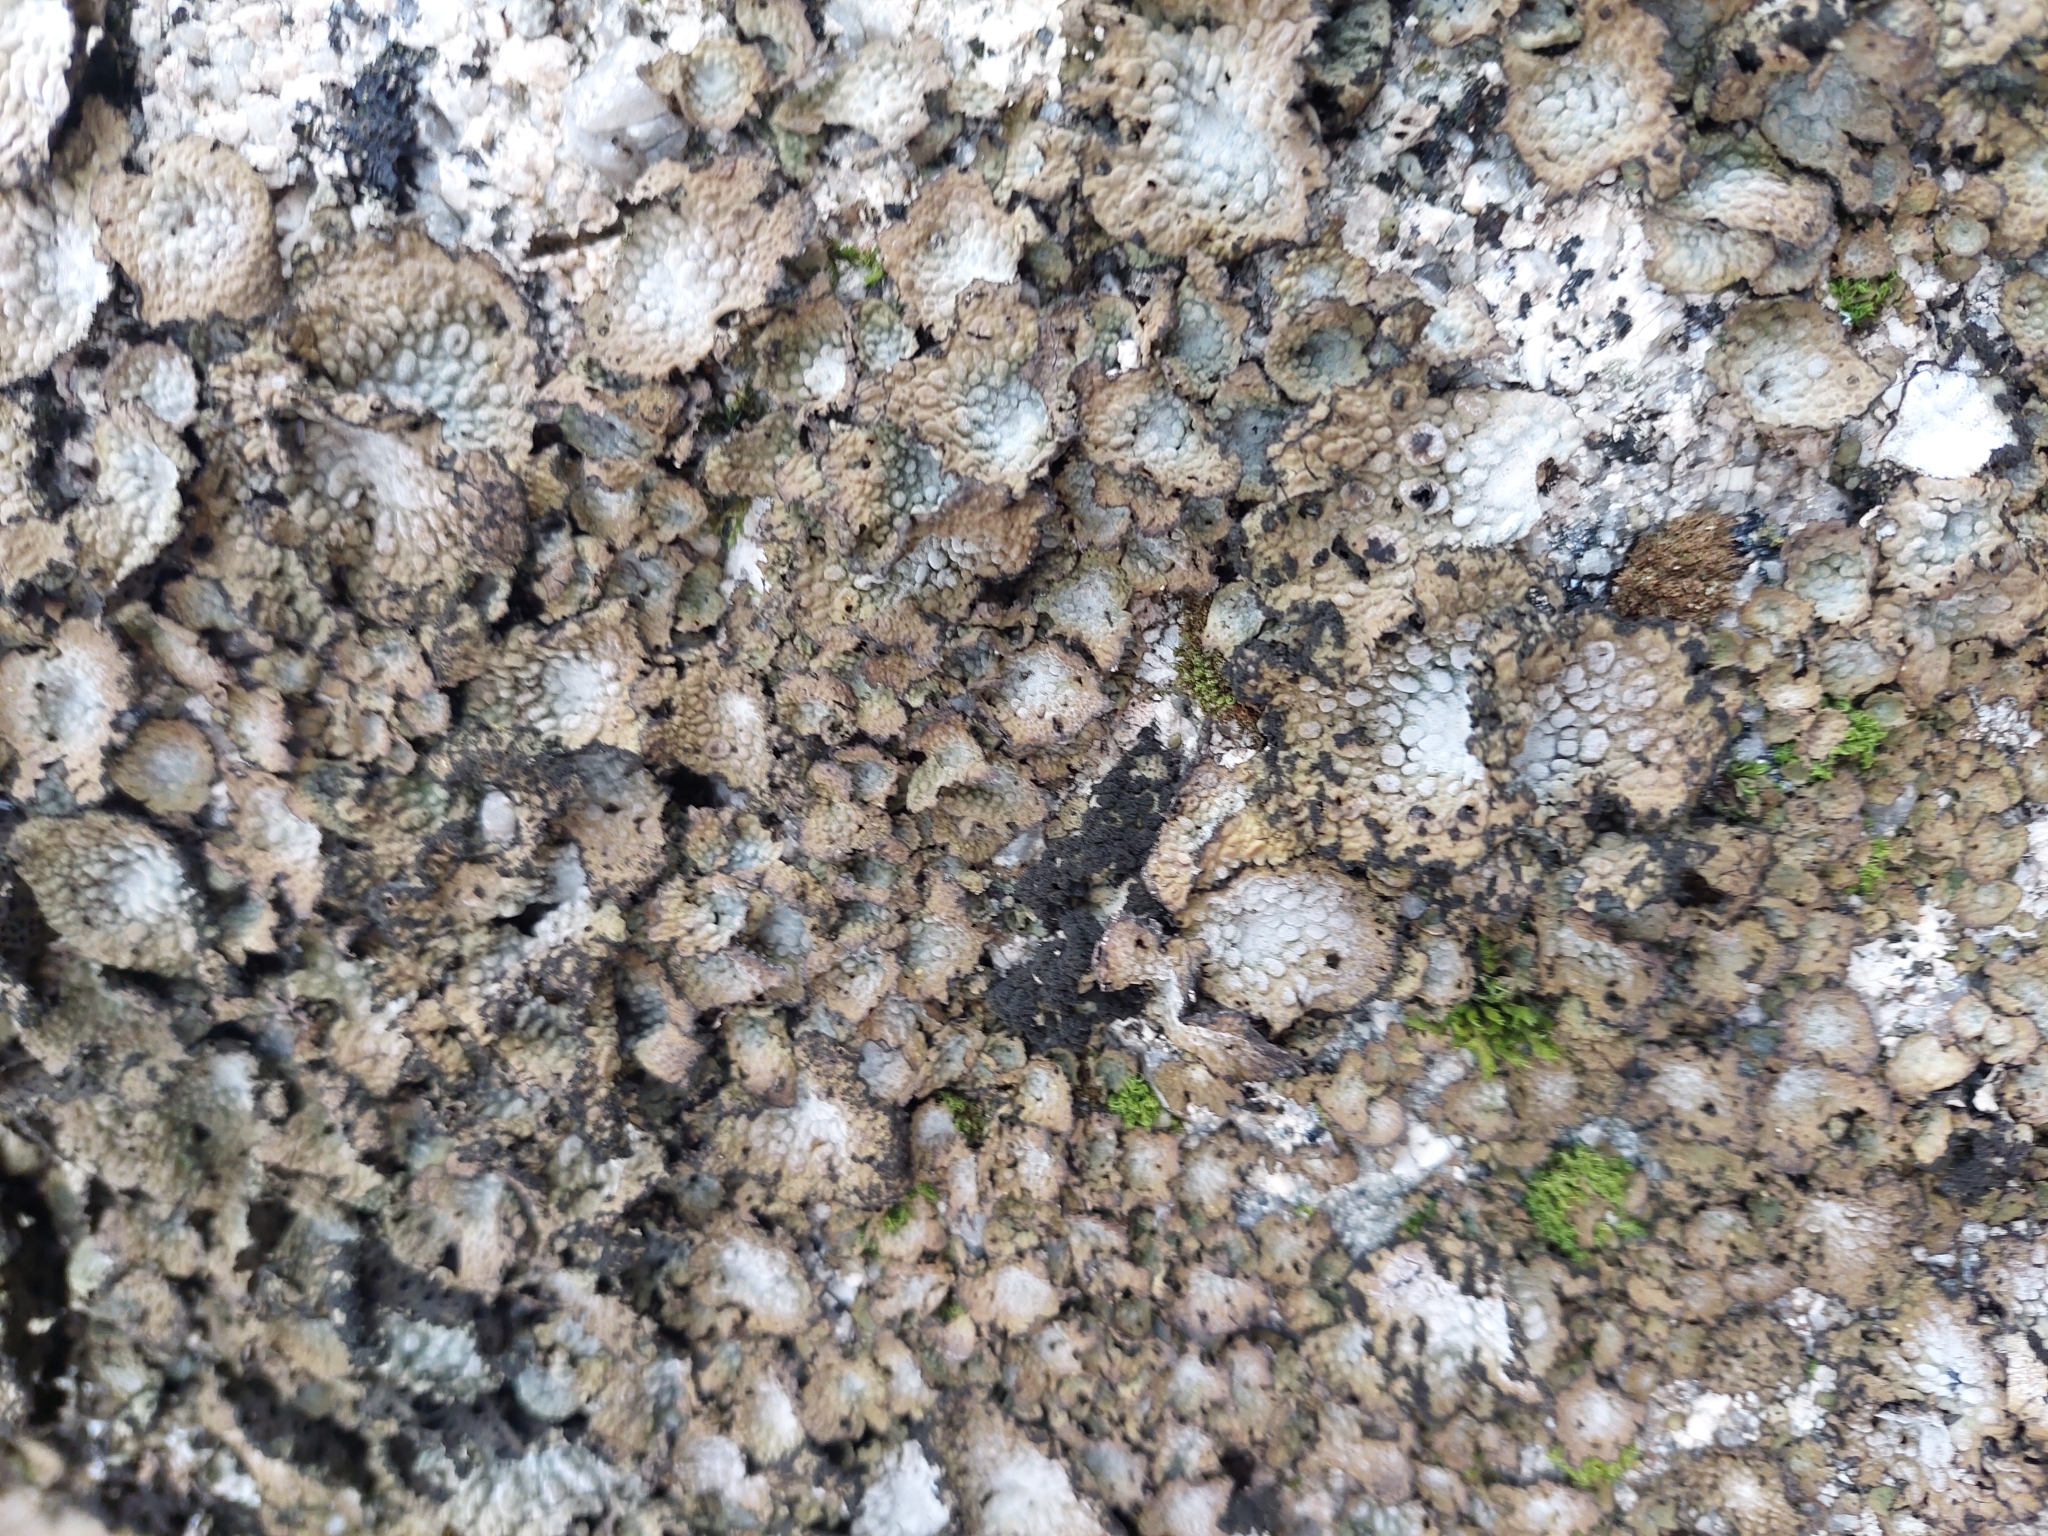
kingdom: Fungi
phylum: Ascomycota
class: Lecanoromycetes
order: Umbilicariales
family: Umbilicariaceae
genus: Lasallia
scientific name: Lasallia pustulata
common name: Blistered toadskin lichen
